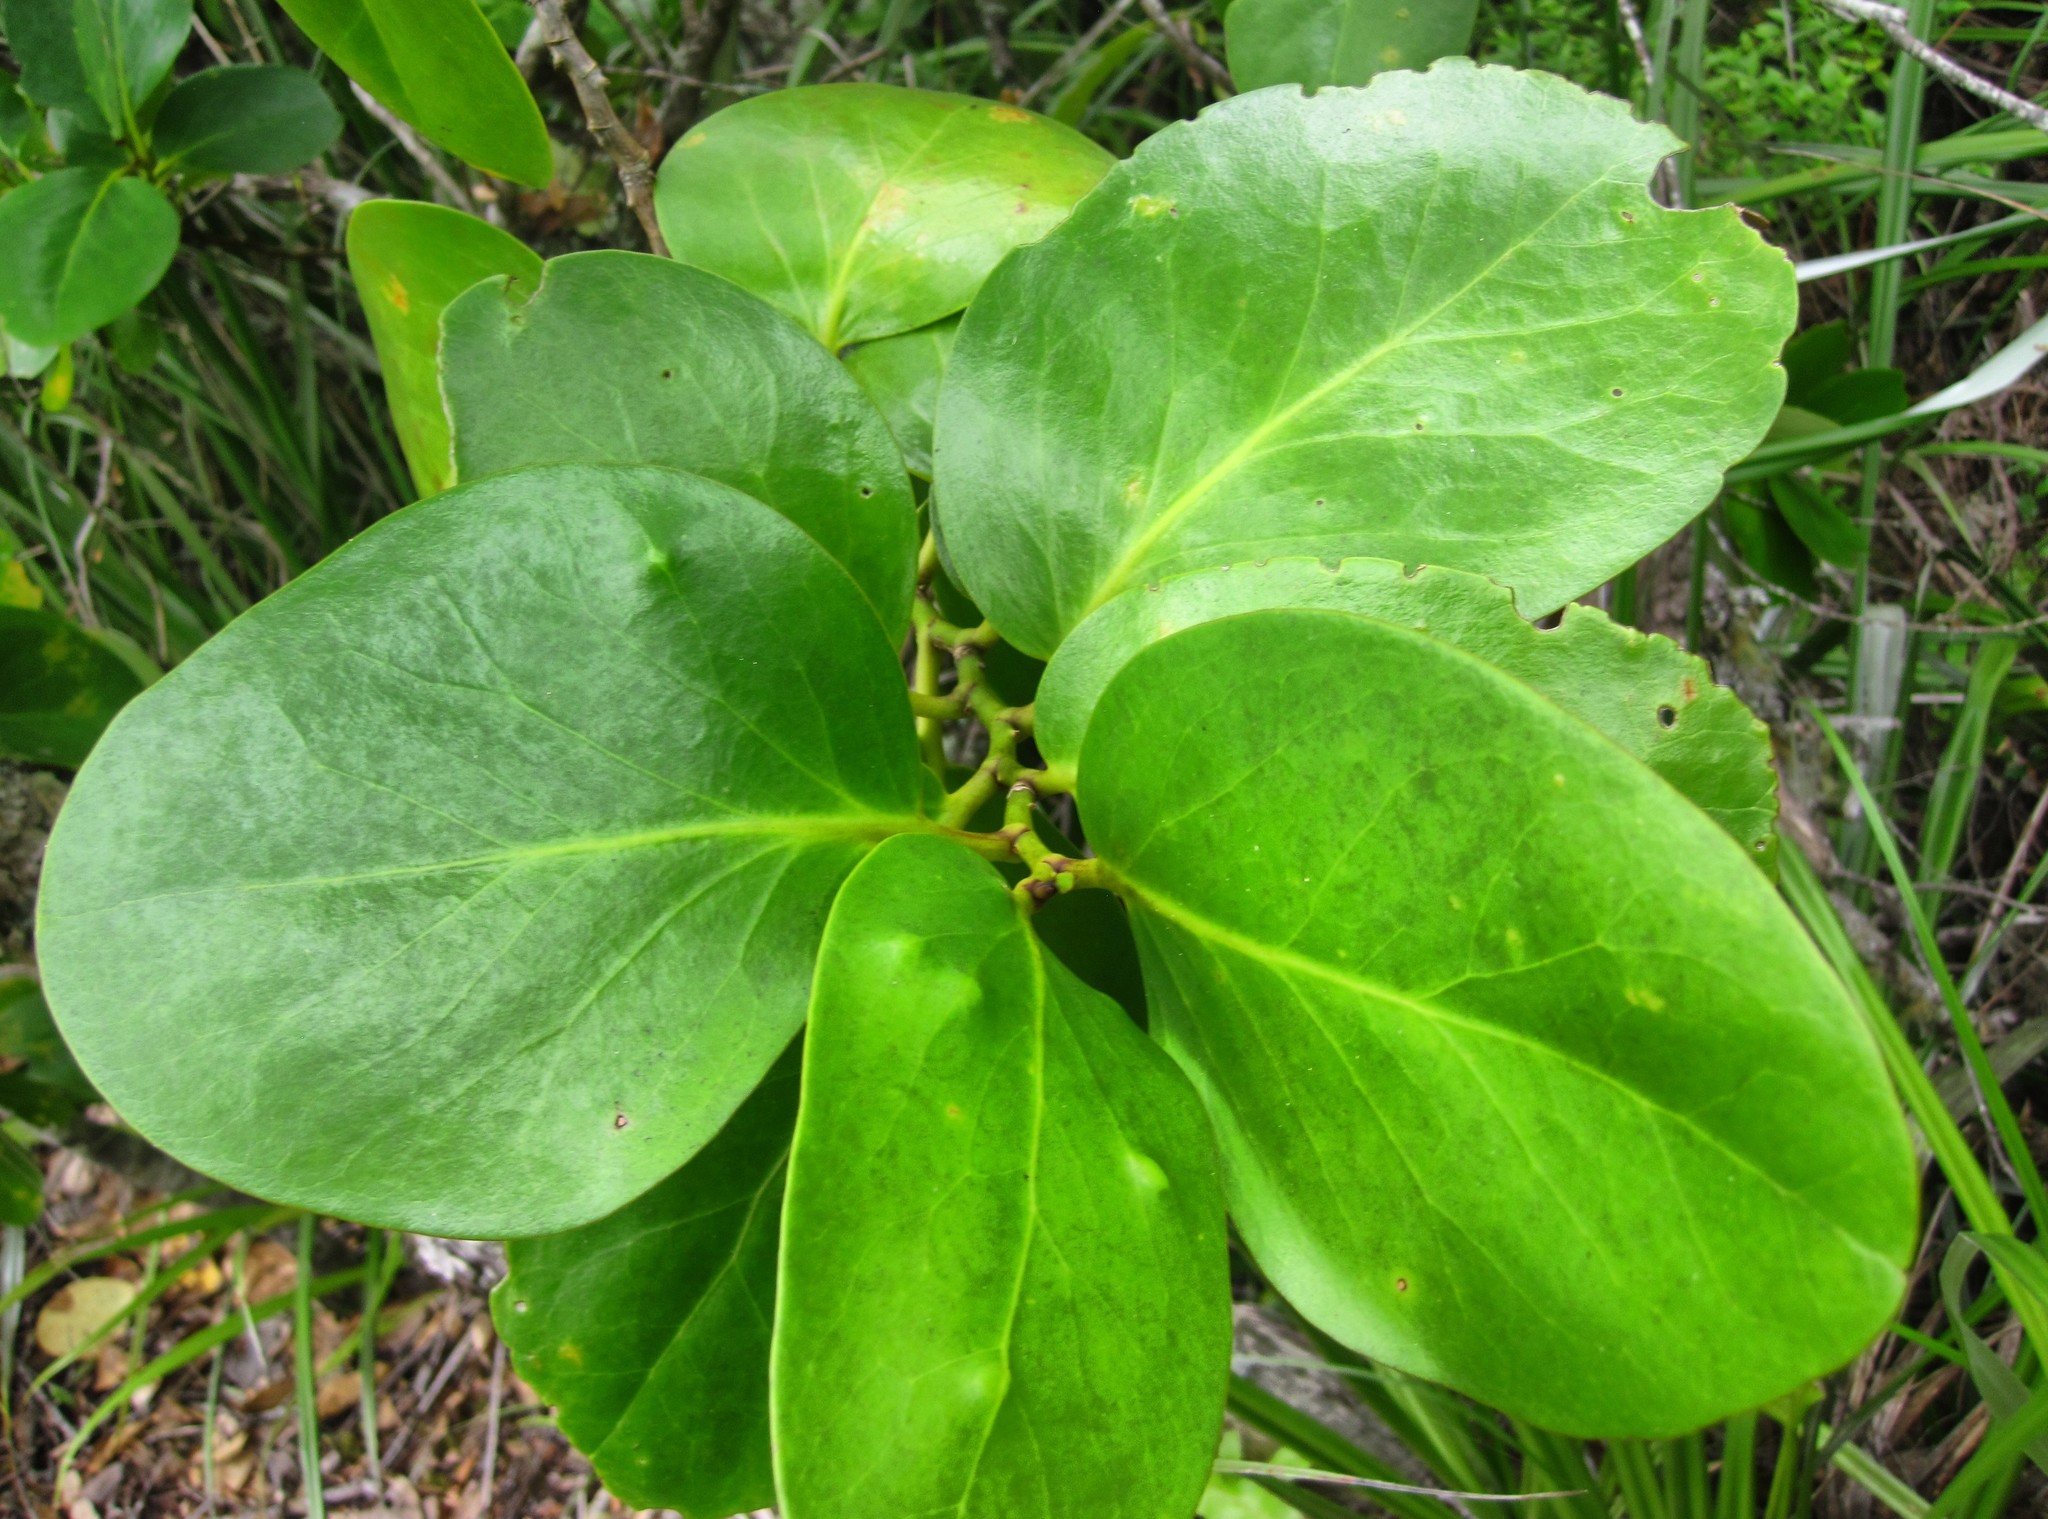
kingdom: Plantae
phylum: Tracheophyta
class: Magnoliopsida
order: Apiales
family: Griseliniaceae
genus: Griselinia
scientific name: Griselinia lucida
